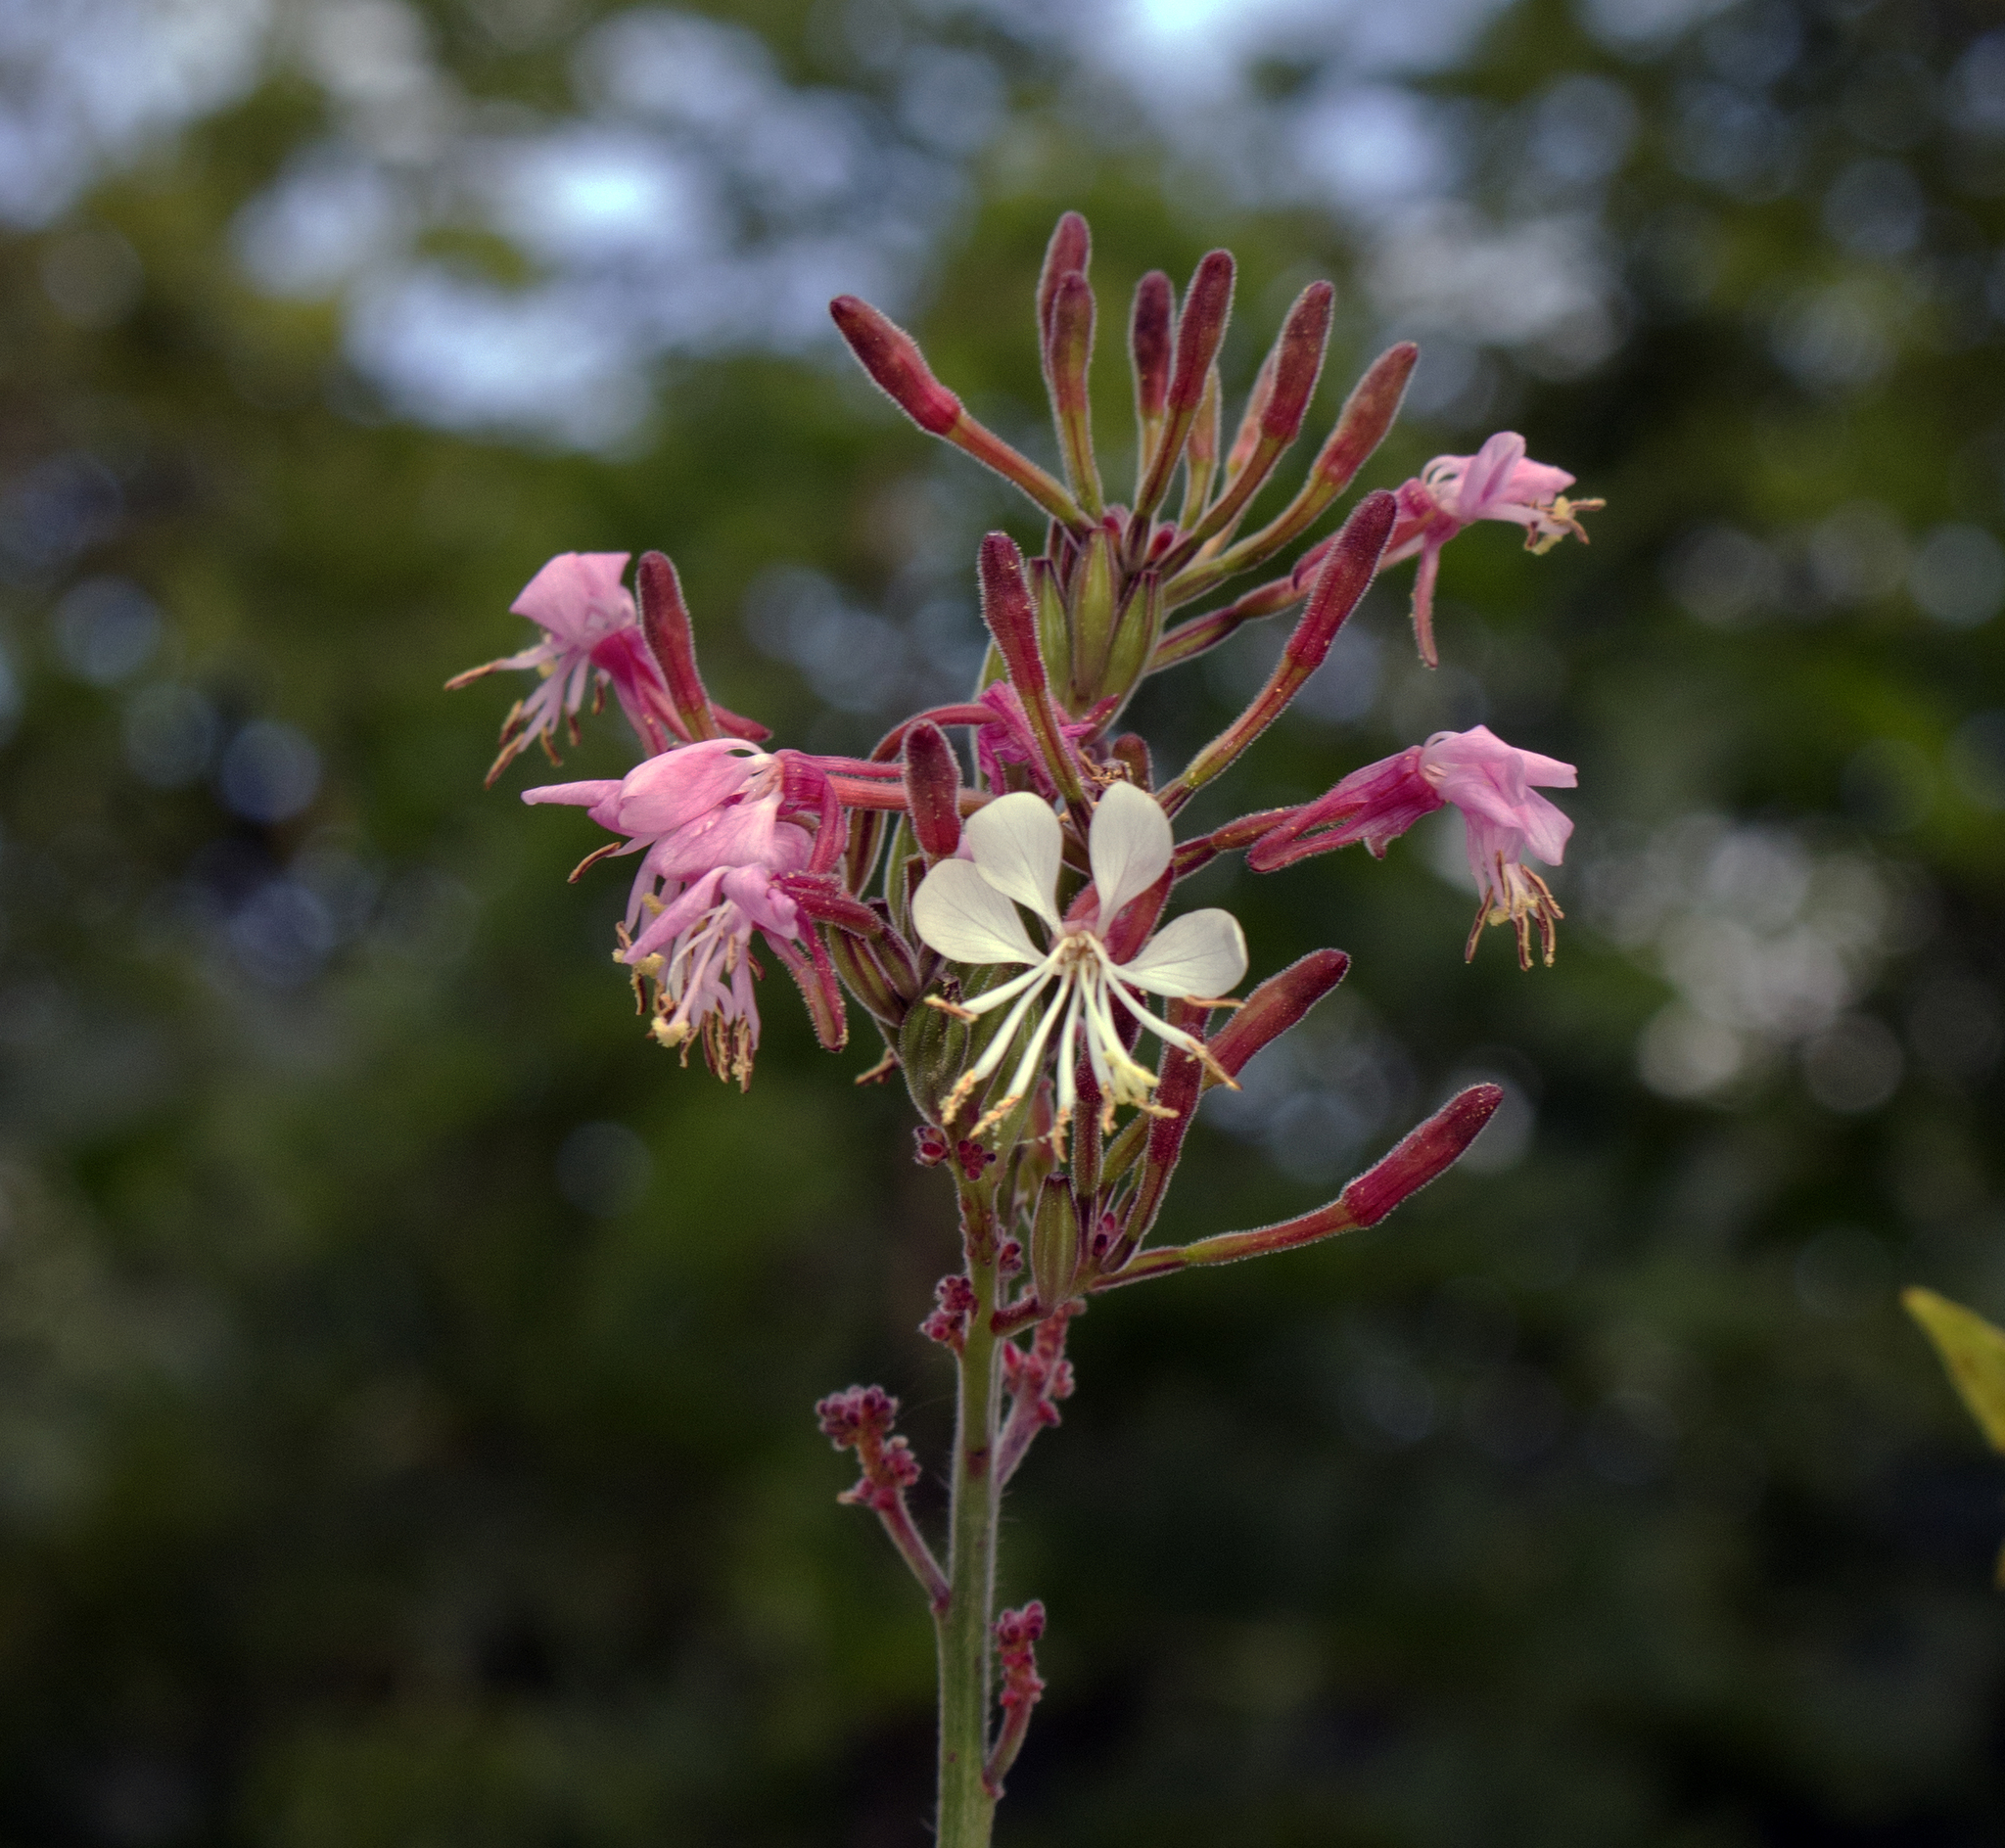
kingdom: Plantae
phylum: Tracheophyta
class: Magnoliopsida
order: Myrtales
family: Onagraceae
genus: Oenothera
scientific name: Oenothera gaura
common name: Biennial beeblossom
